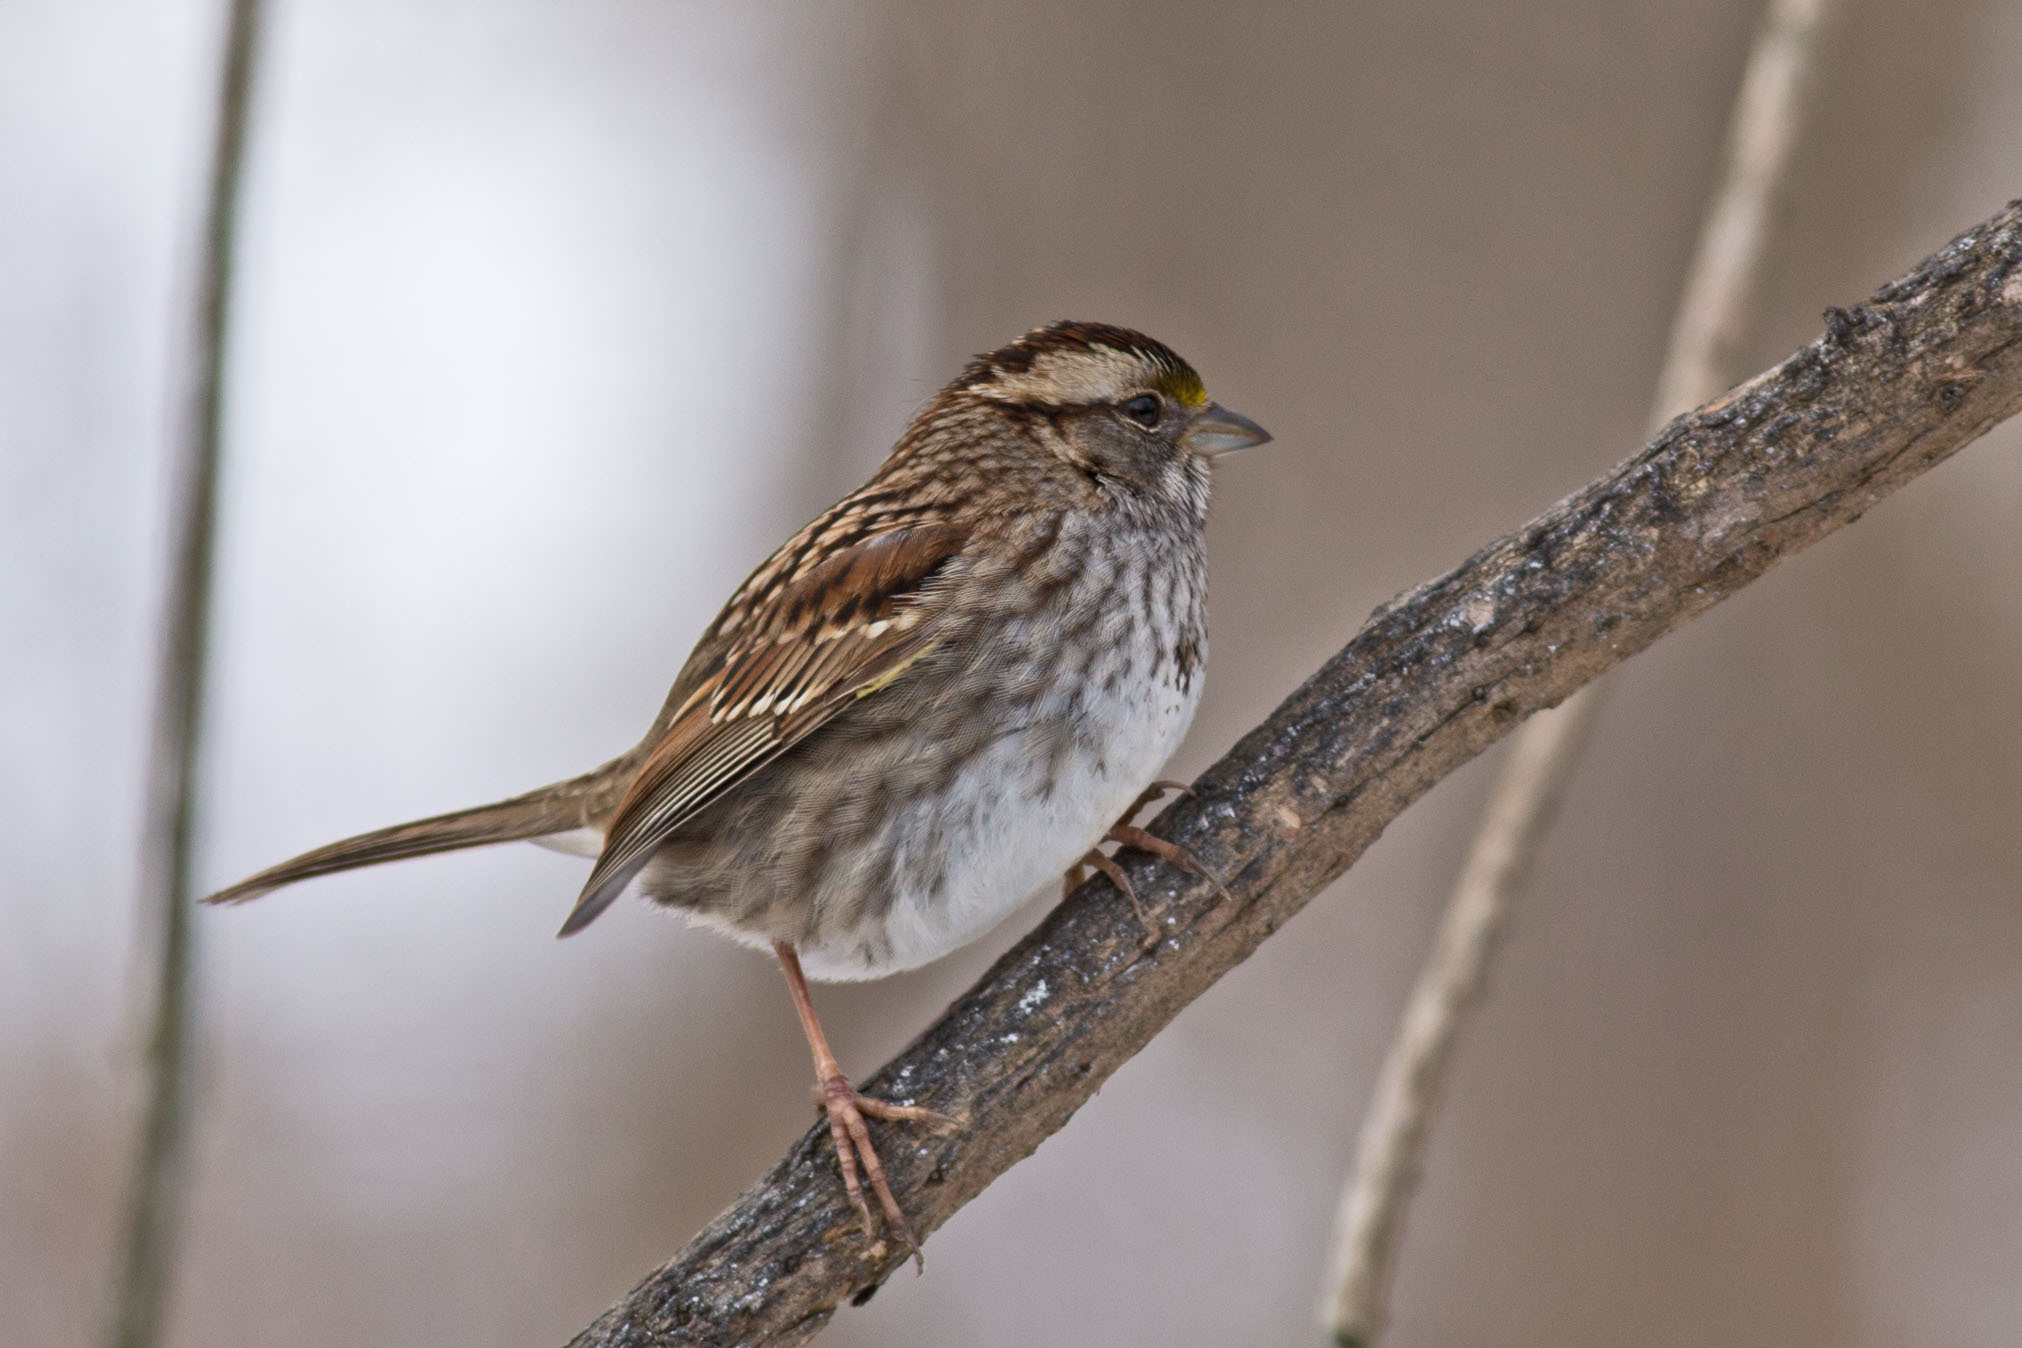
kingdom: Animalia
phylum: Chordata
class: Aves
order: Passeriformes
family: Passerellidae
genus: Zonotrichia
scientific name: Zonotrichia albicollis
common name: White-throated sparrow
